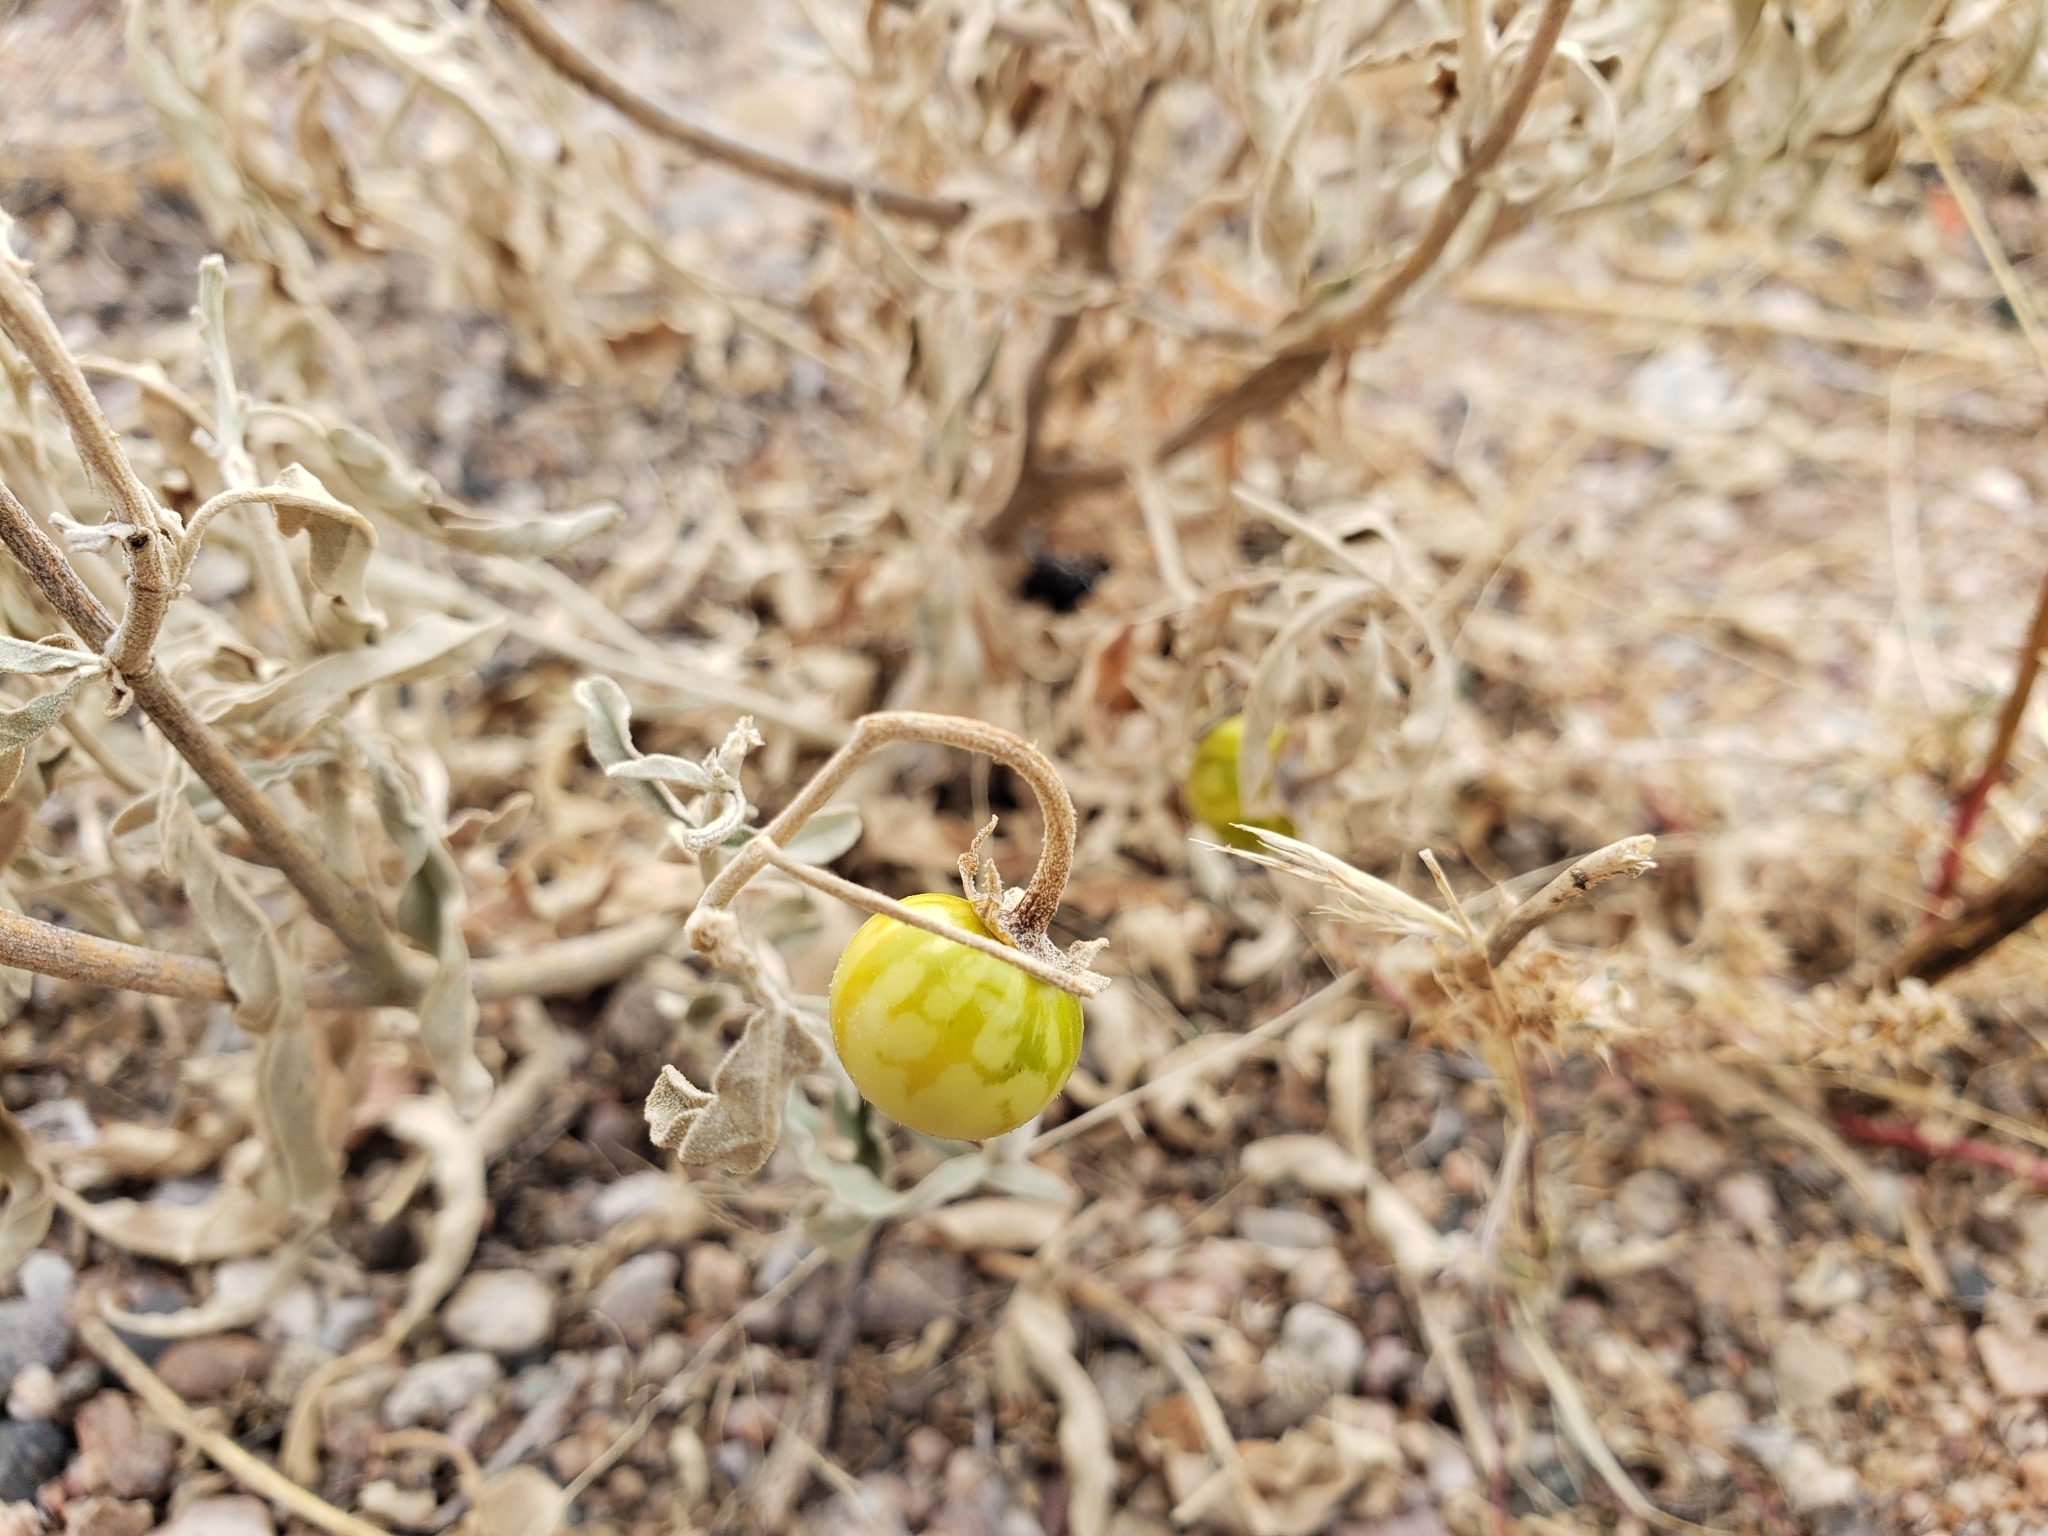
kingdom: Plantae
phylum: Tracheophyta
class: Magnoliopsida
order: Solanales
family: Solanaceae
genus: Solanum
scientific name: Solanum elaeagnifolium
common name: Silverleaf nightshade
